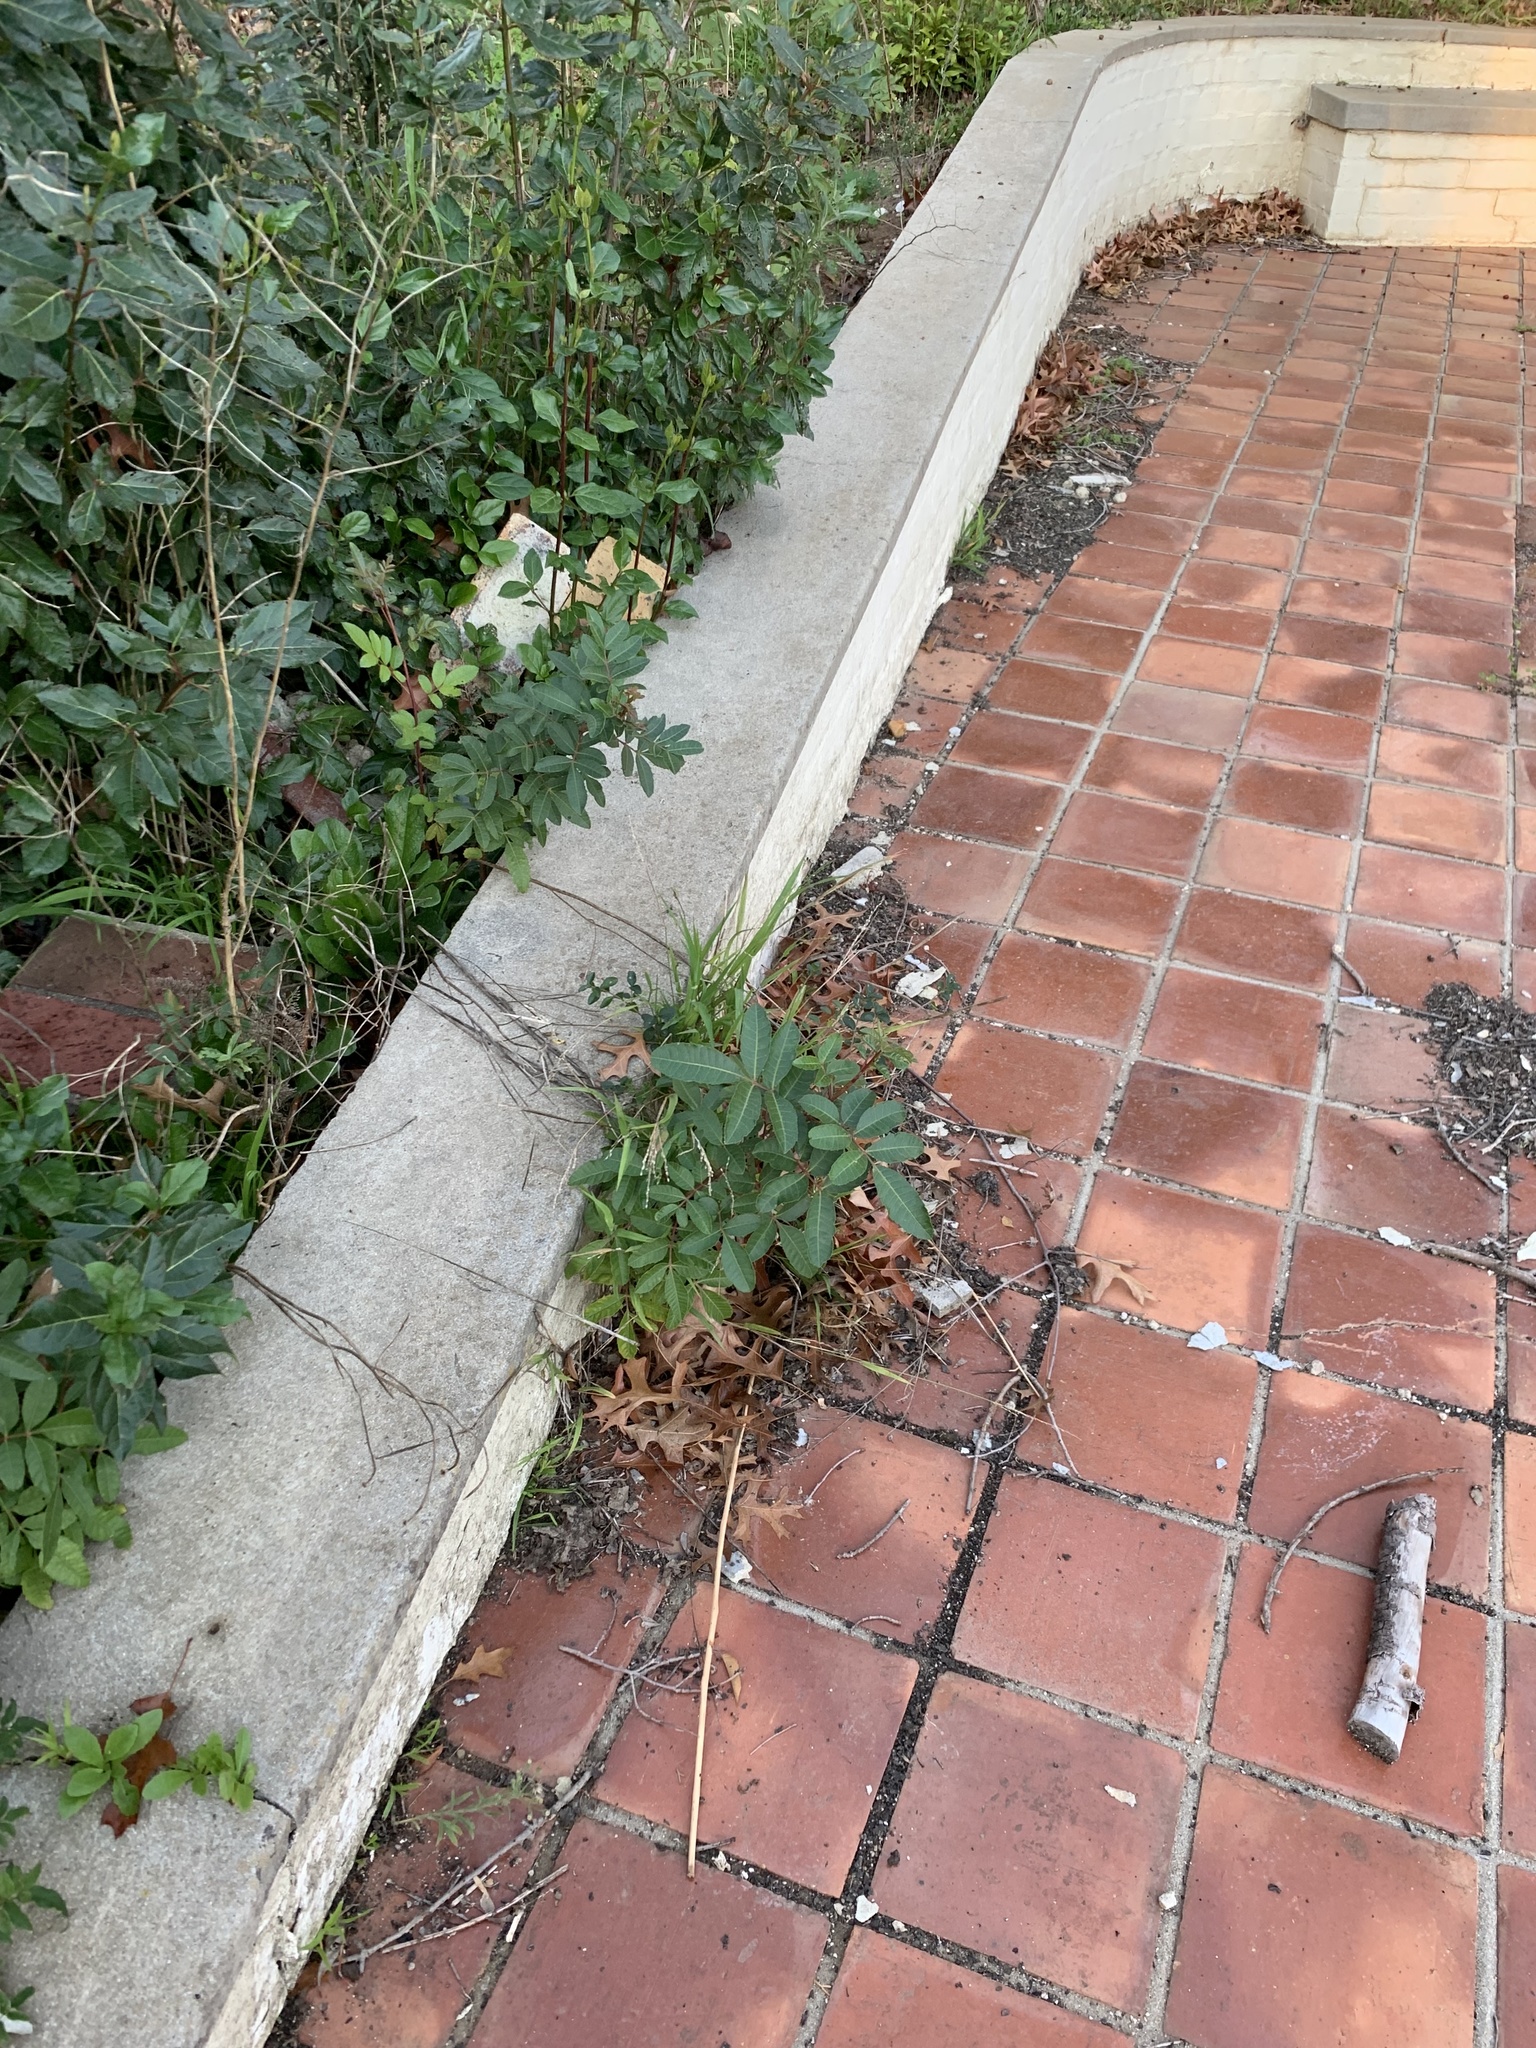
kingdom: Plantae
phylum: Tracheophyta
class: Magnoliopsida
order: Sapindales
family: Anacardiaceae
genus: Schinus
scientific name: Schinus terebinthifolia
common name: Brazilian peppertree
